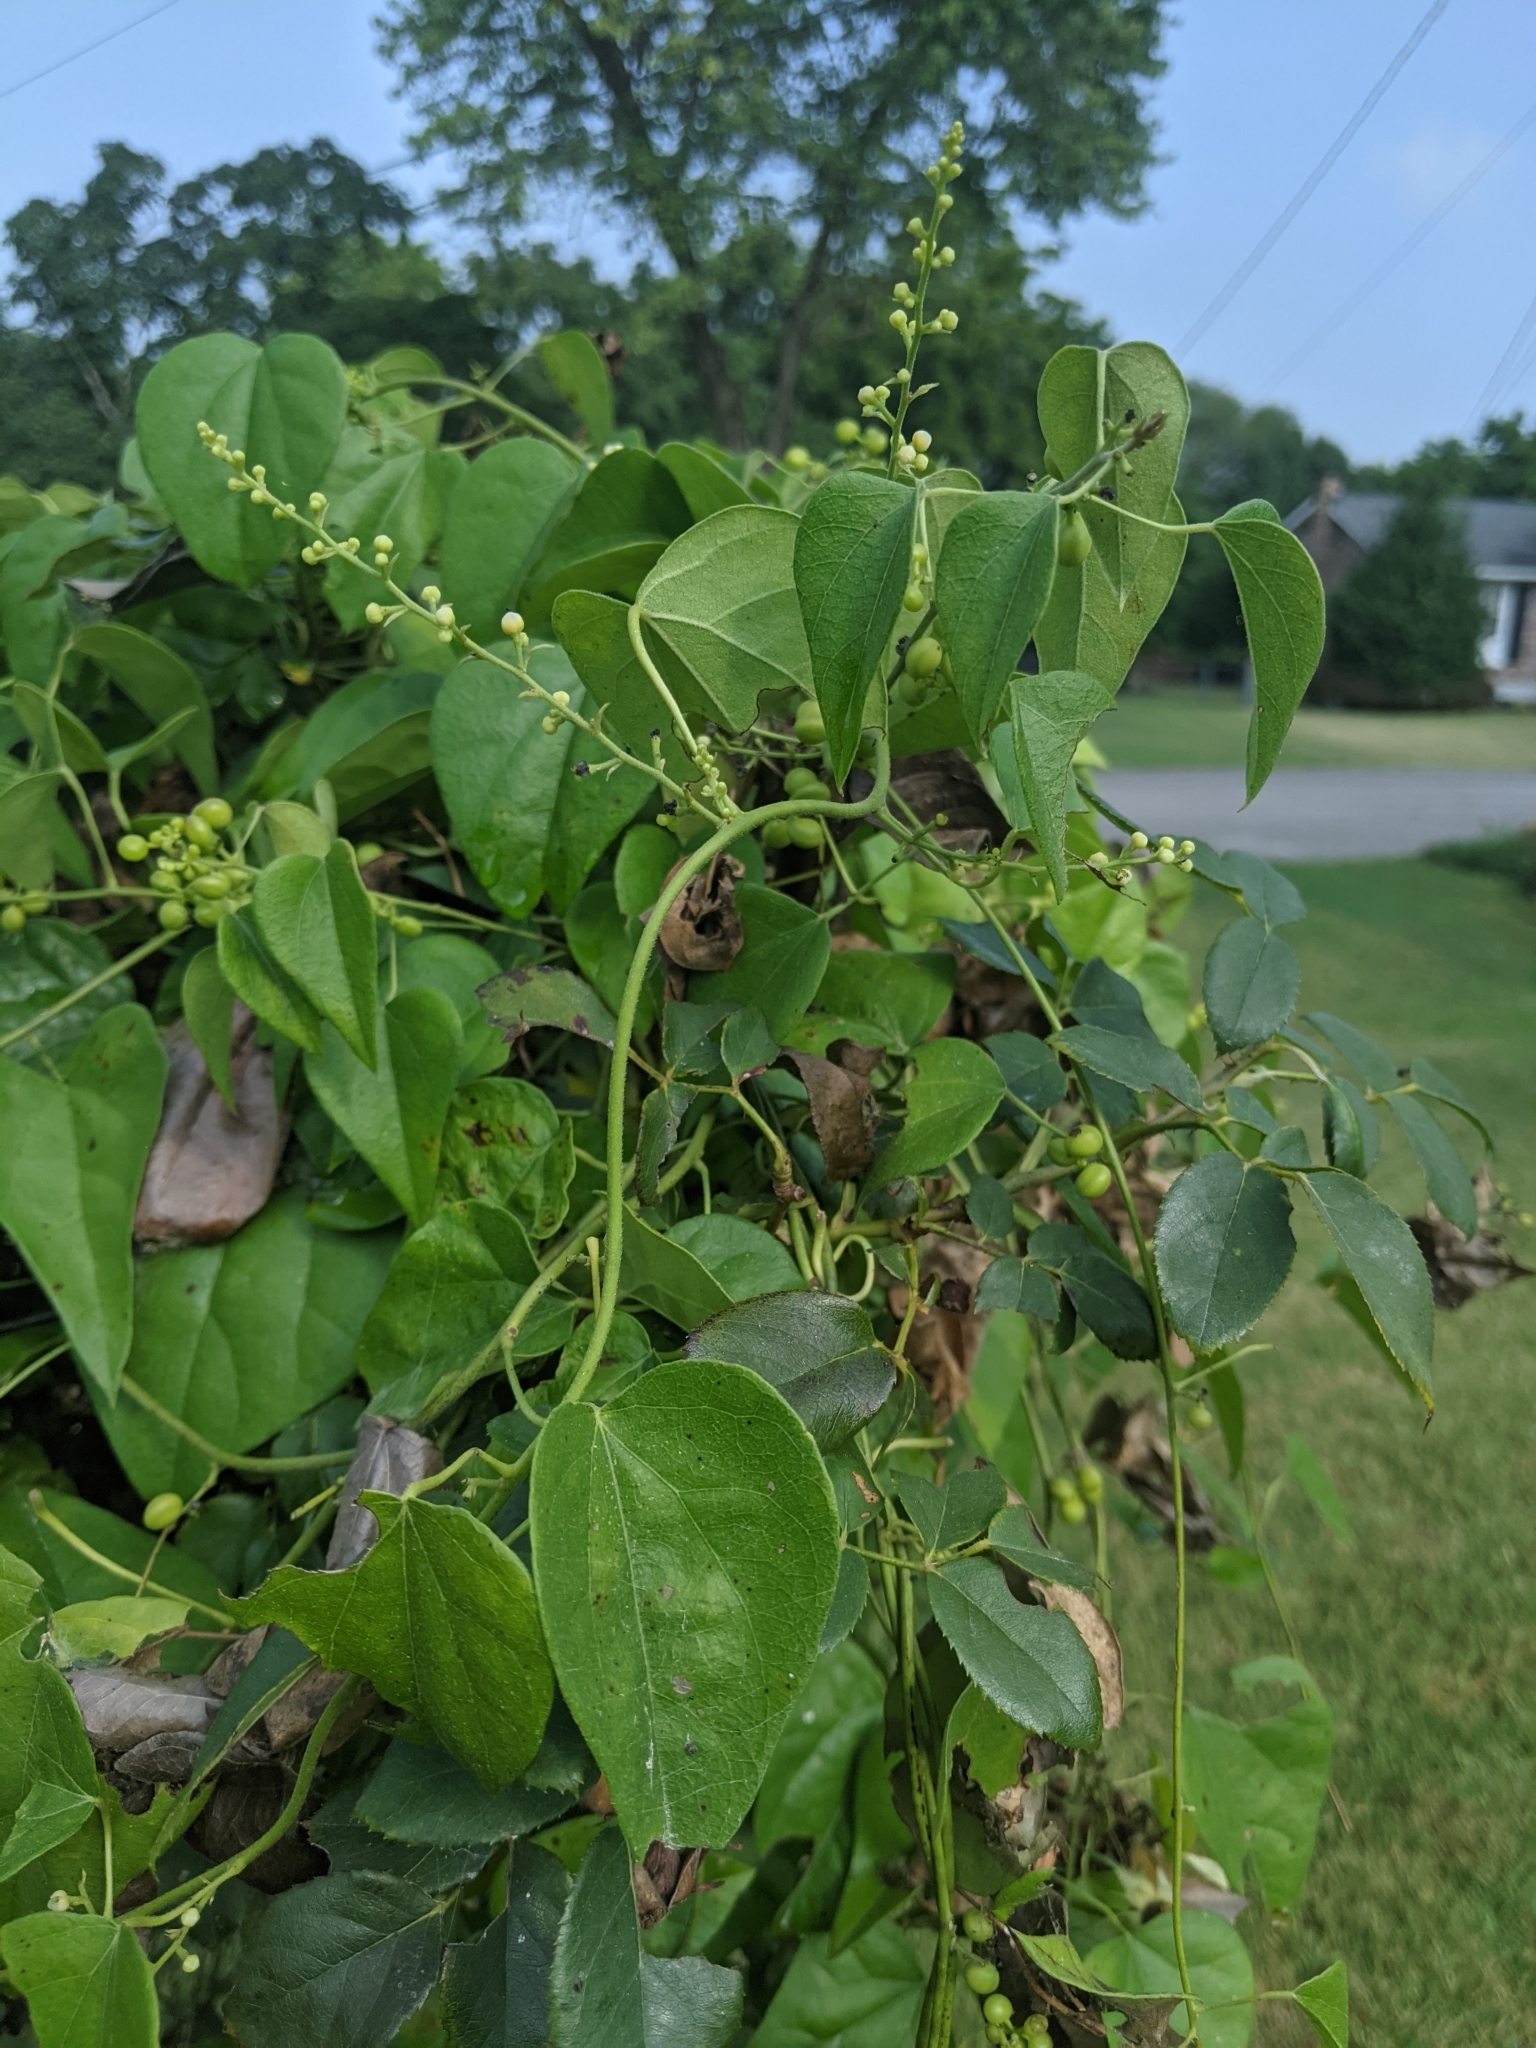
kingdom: Plantae
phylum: Tracheophyta
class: Magnoliopsida
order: Ranunculales
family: Menispermaceae
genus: Cocculus
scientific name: Cocculus carolinus
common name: Carolina moonseed
